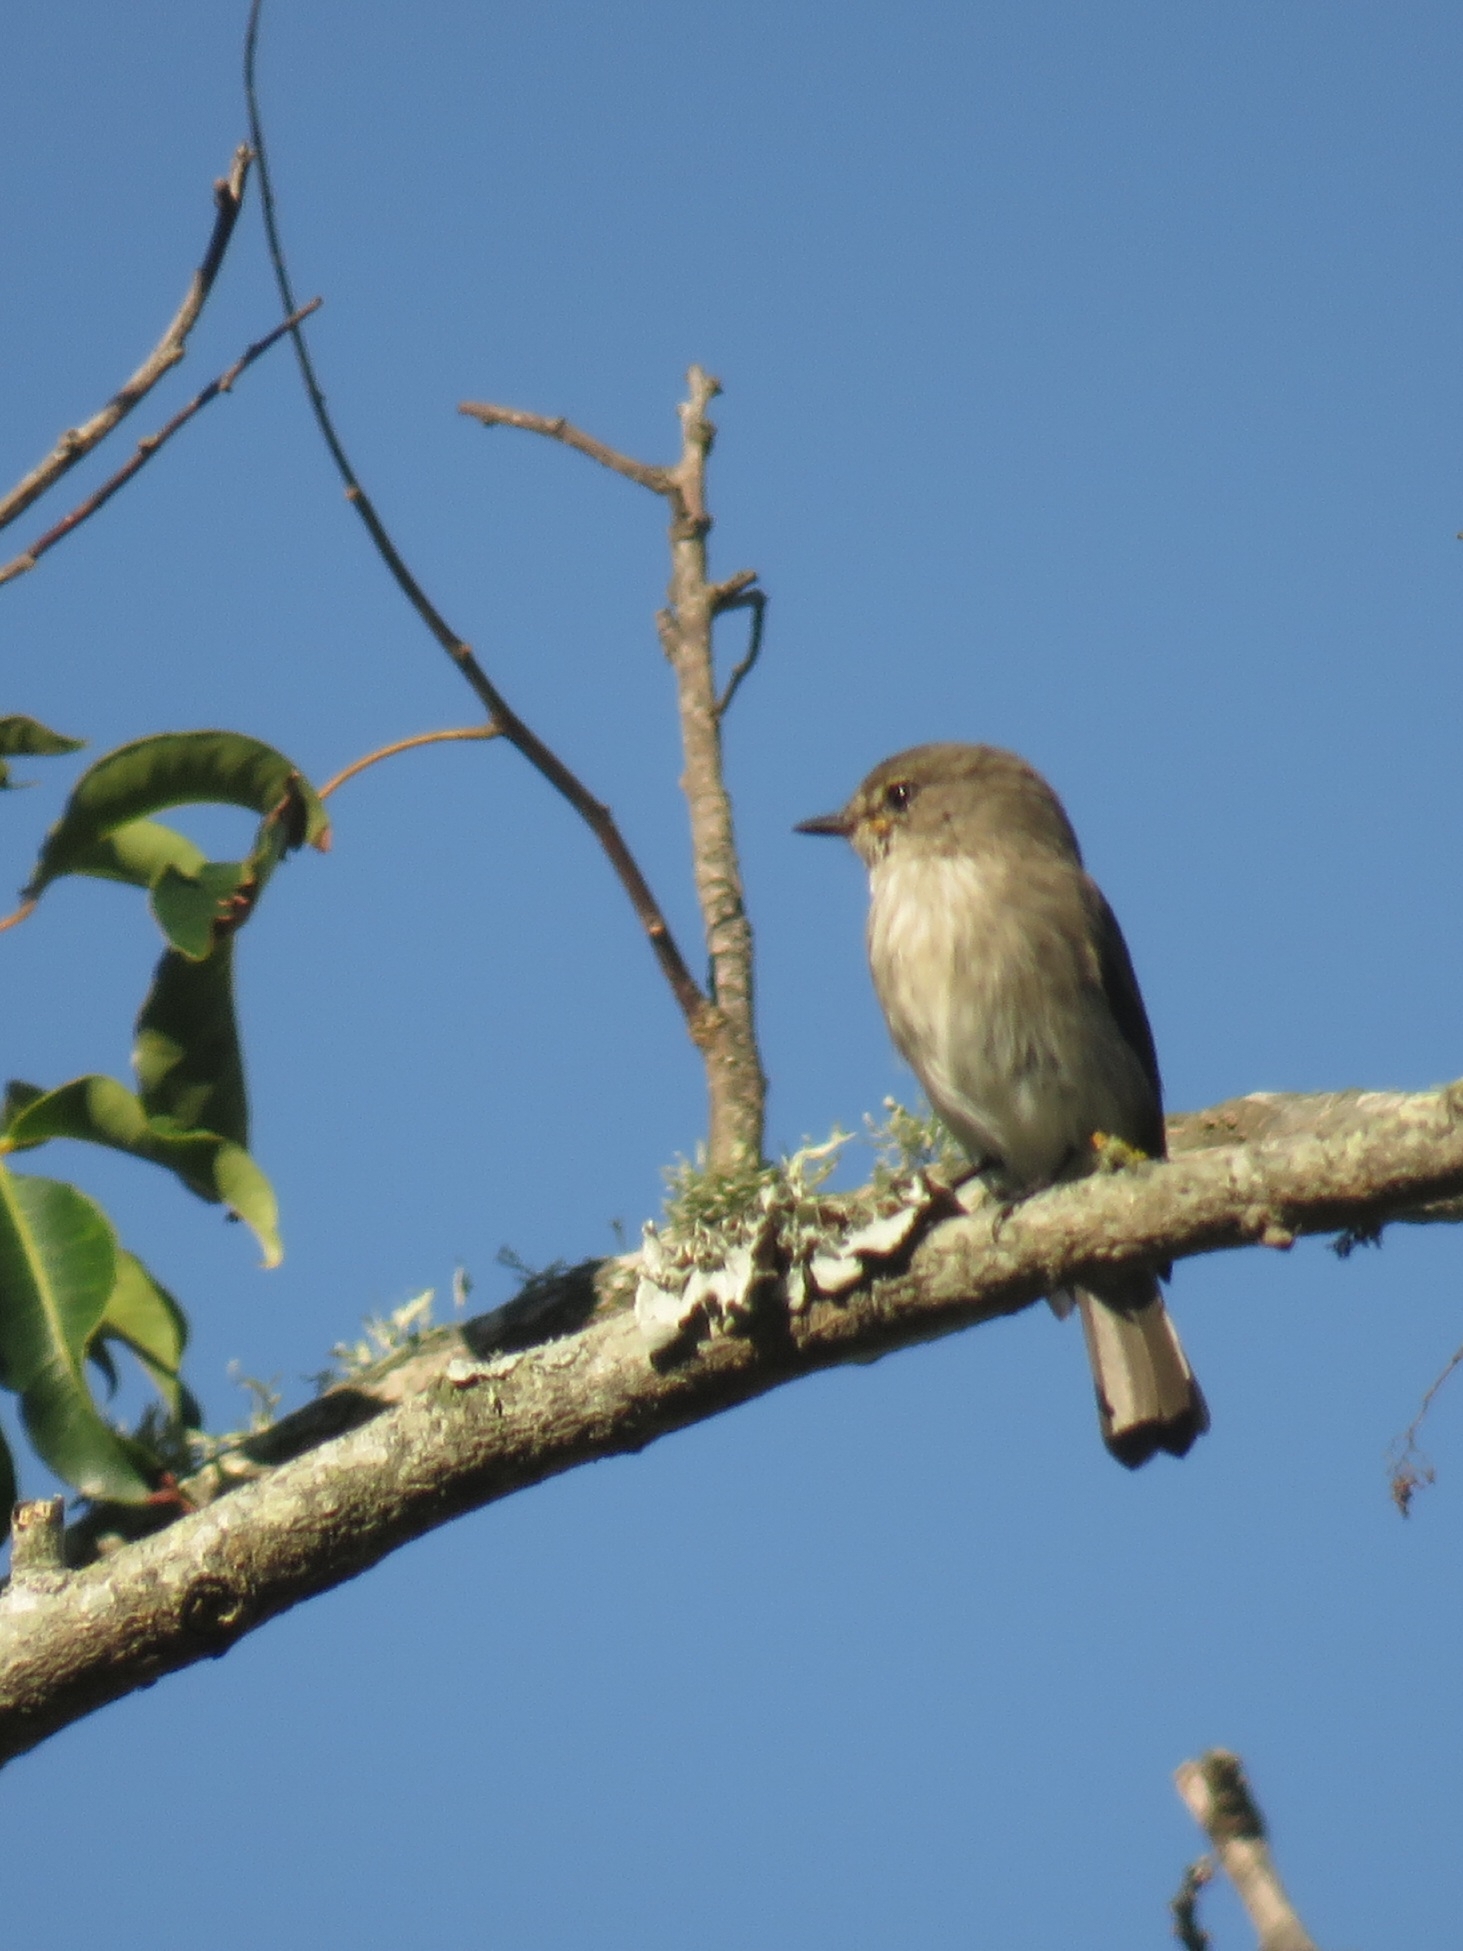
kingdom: Animalia
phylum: Chordata
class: Aves
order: Passeriformes
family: Muscicapidae
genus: Muscicapa
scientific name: Muscicapa adusta
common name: African dusky flycatcher
